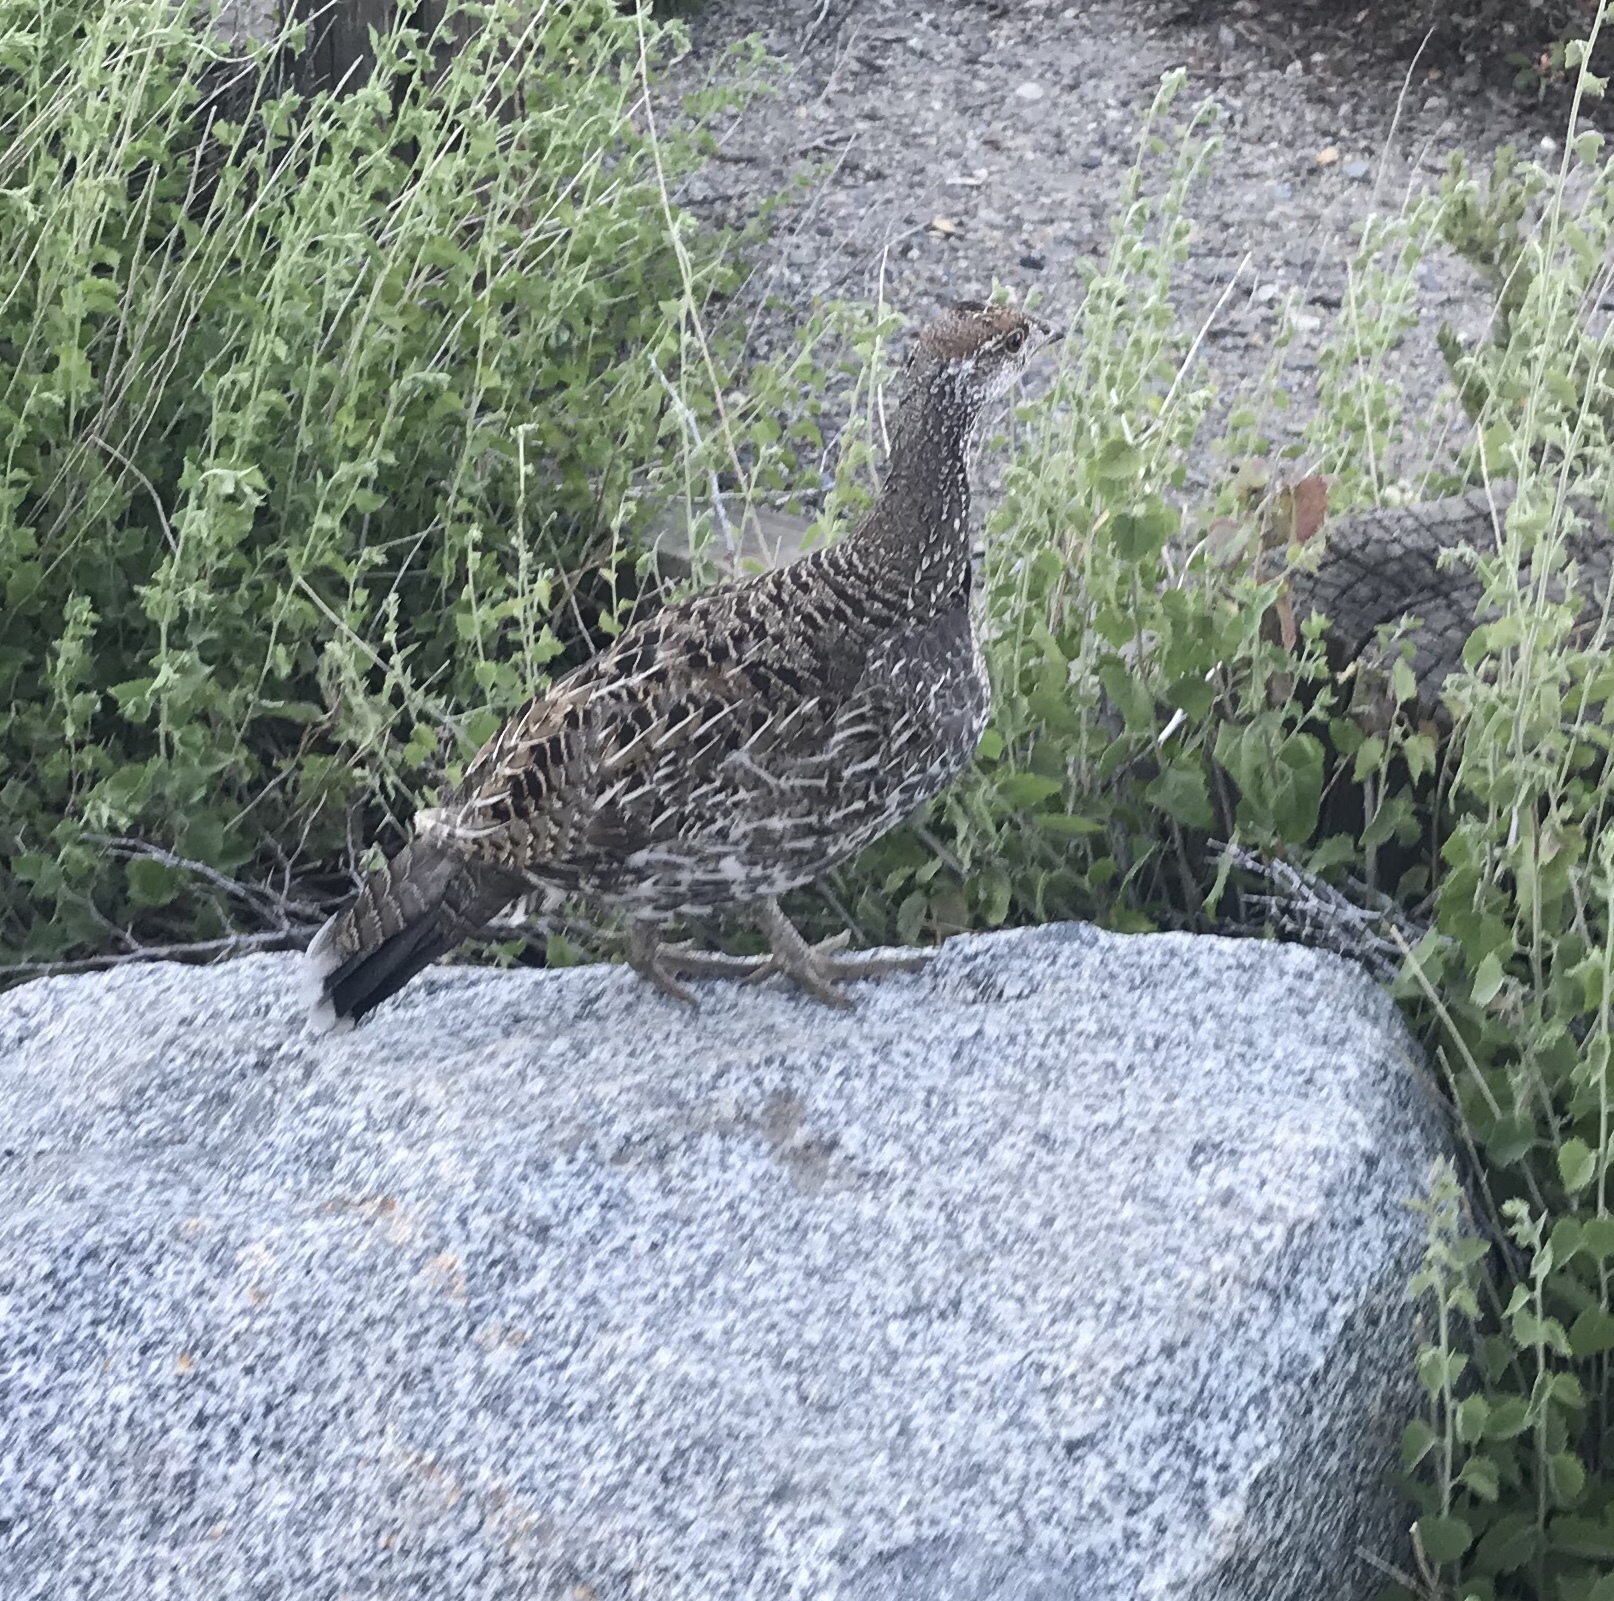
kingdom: Animalia
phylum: Chordata
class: Aves
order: Galliformes
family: Phasianidae
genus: Dendragapus
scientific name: Dendragapus fuliginosus
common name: Sooty grouse
